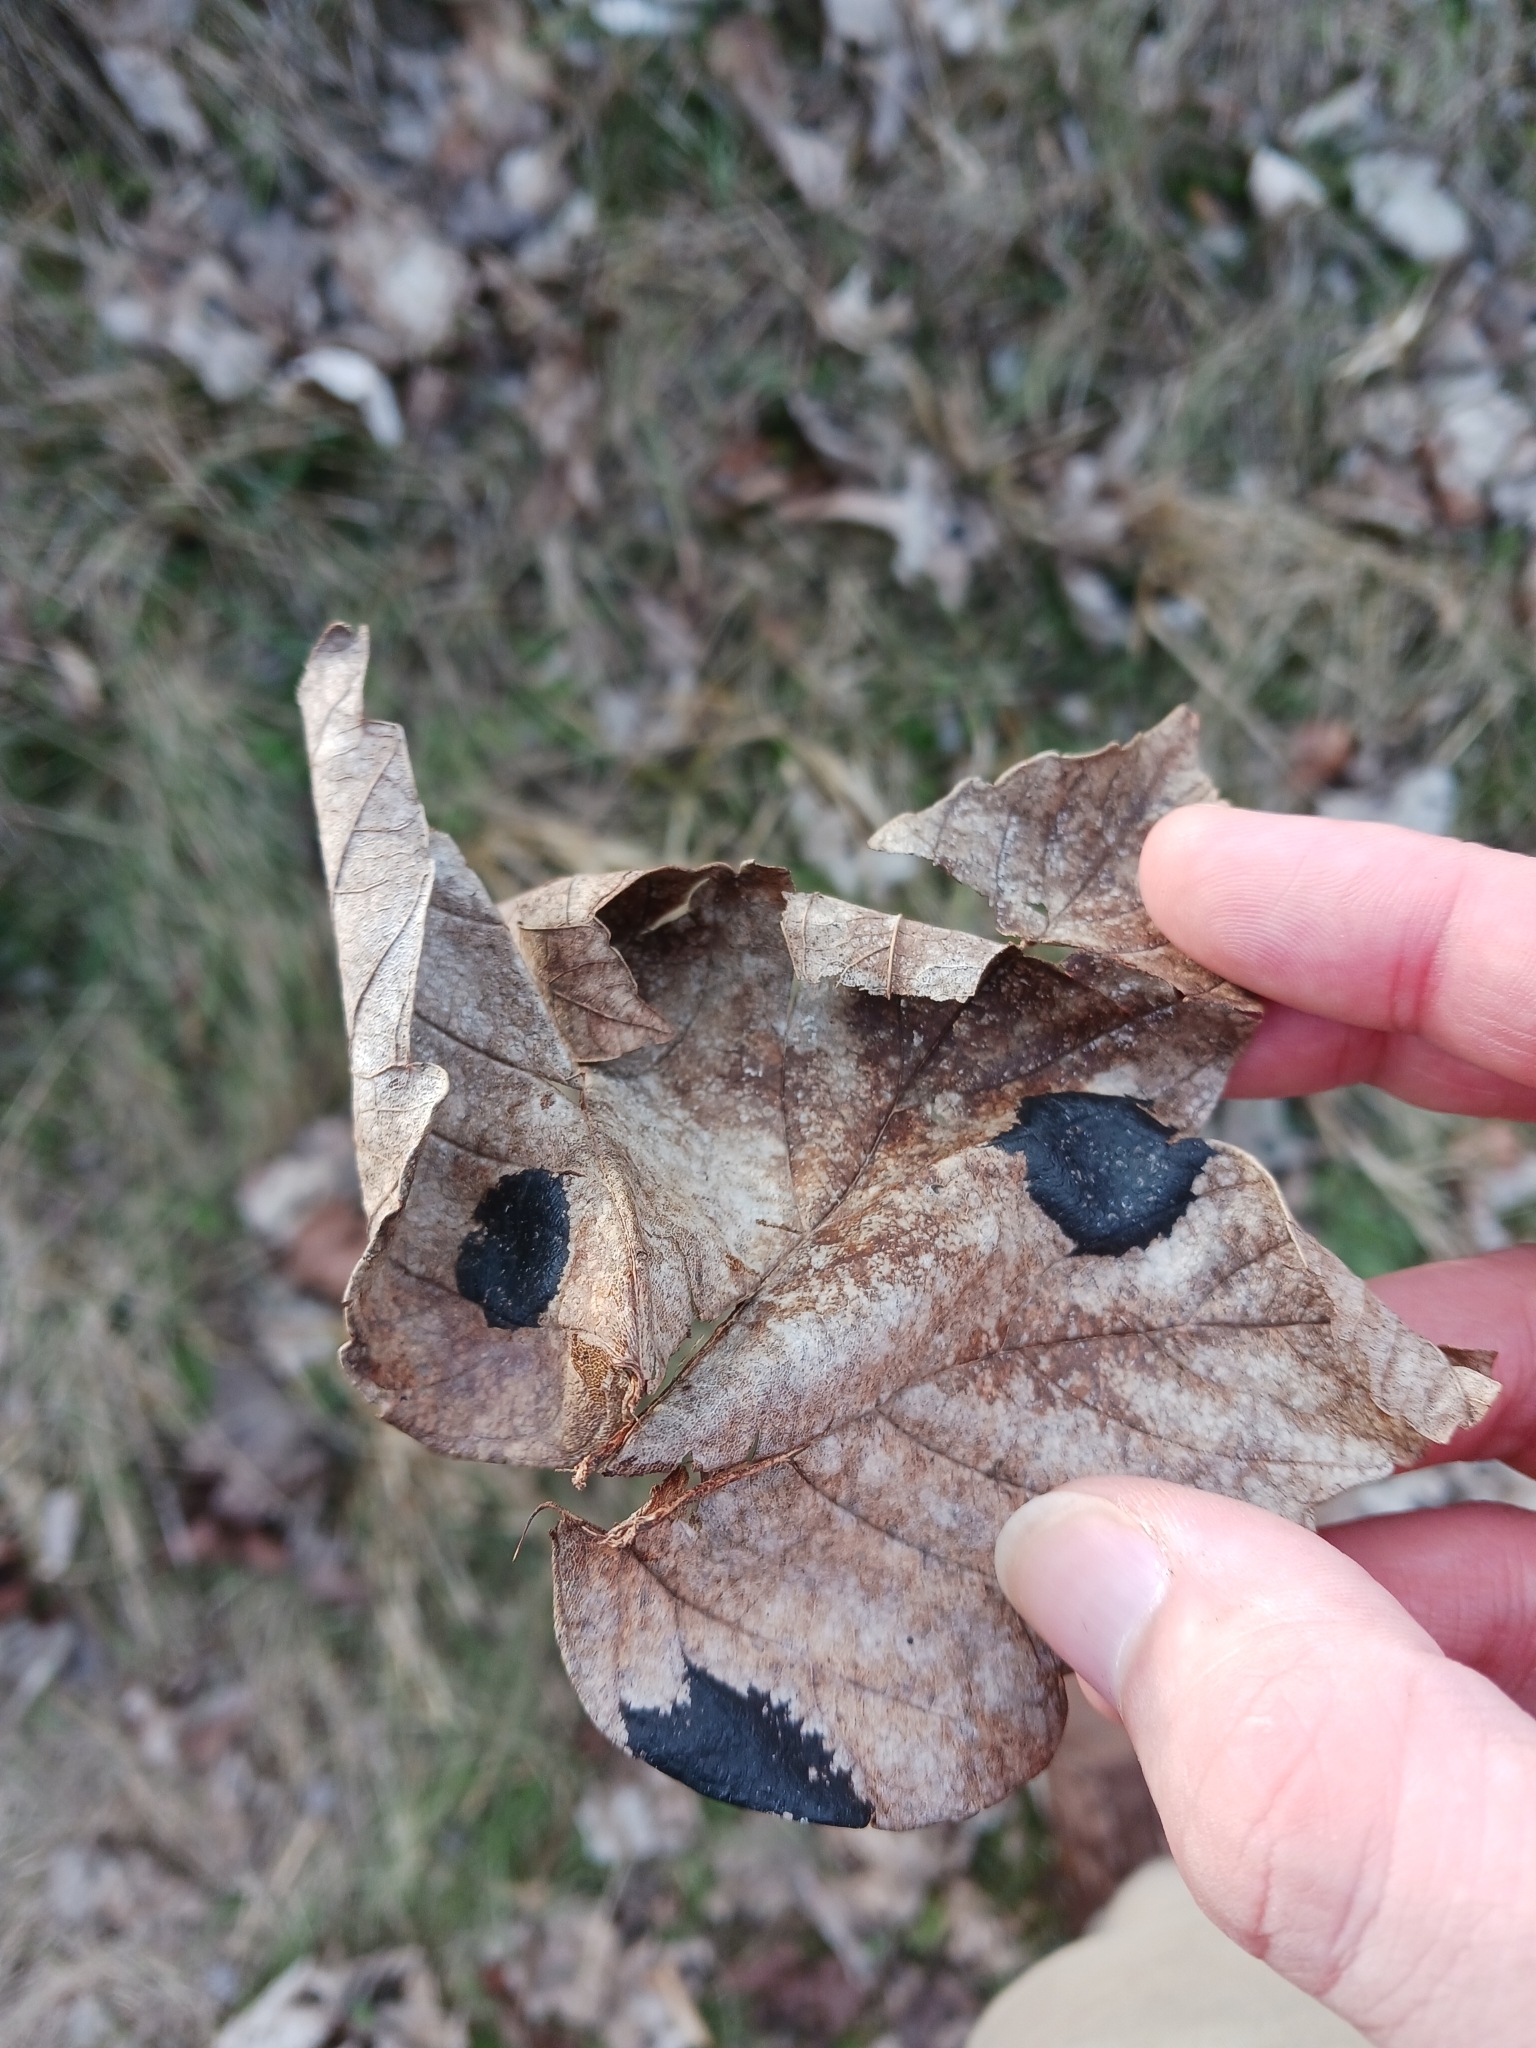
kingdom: Fungi
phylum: Ascomycota
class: Leotiomycetes
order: Rhytismatales
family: Rhytismataceae
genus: Rhytisma
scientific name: Rhytisma acerinum
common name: European tar spot
